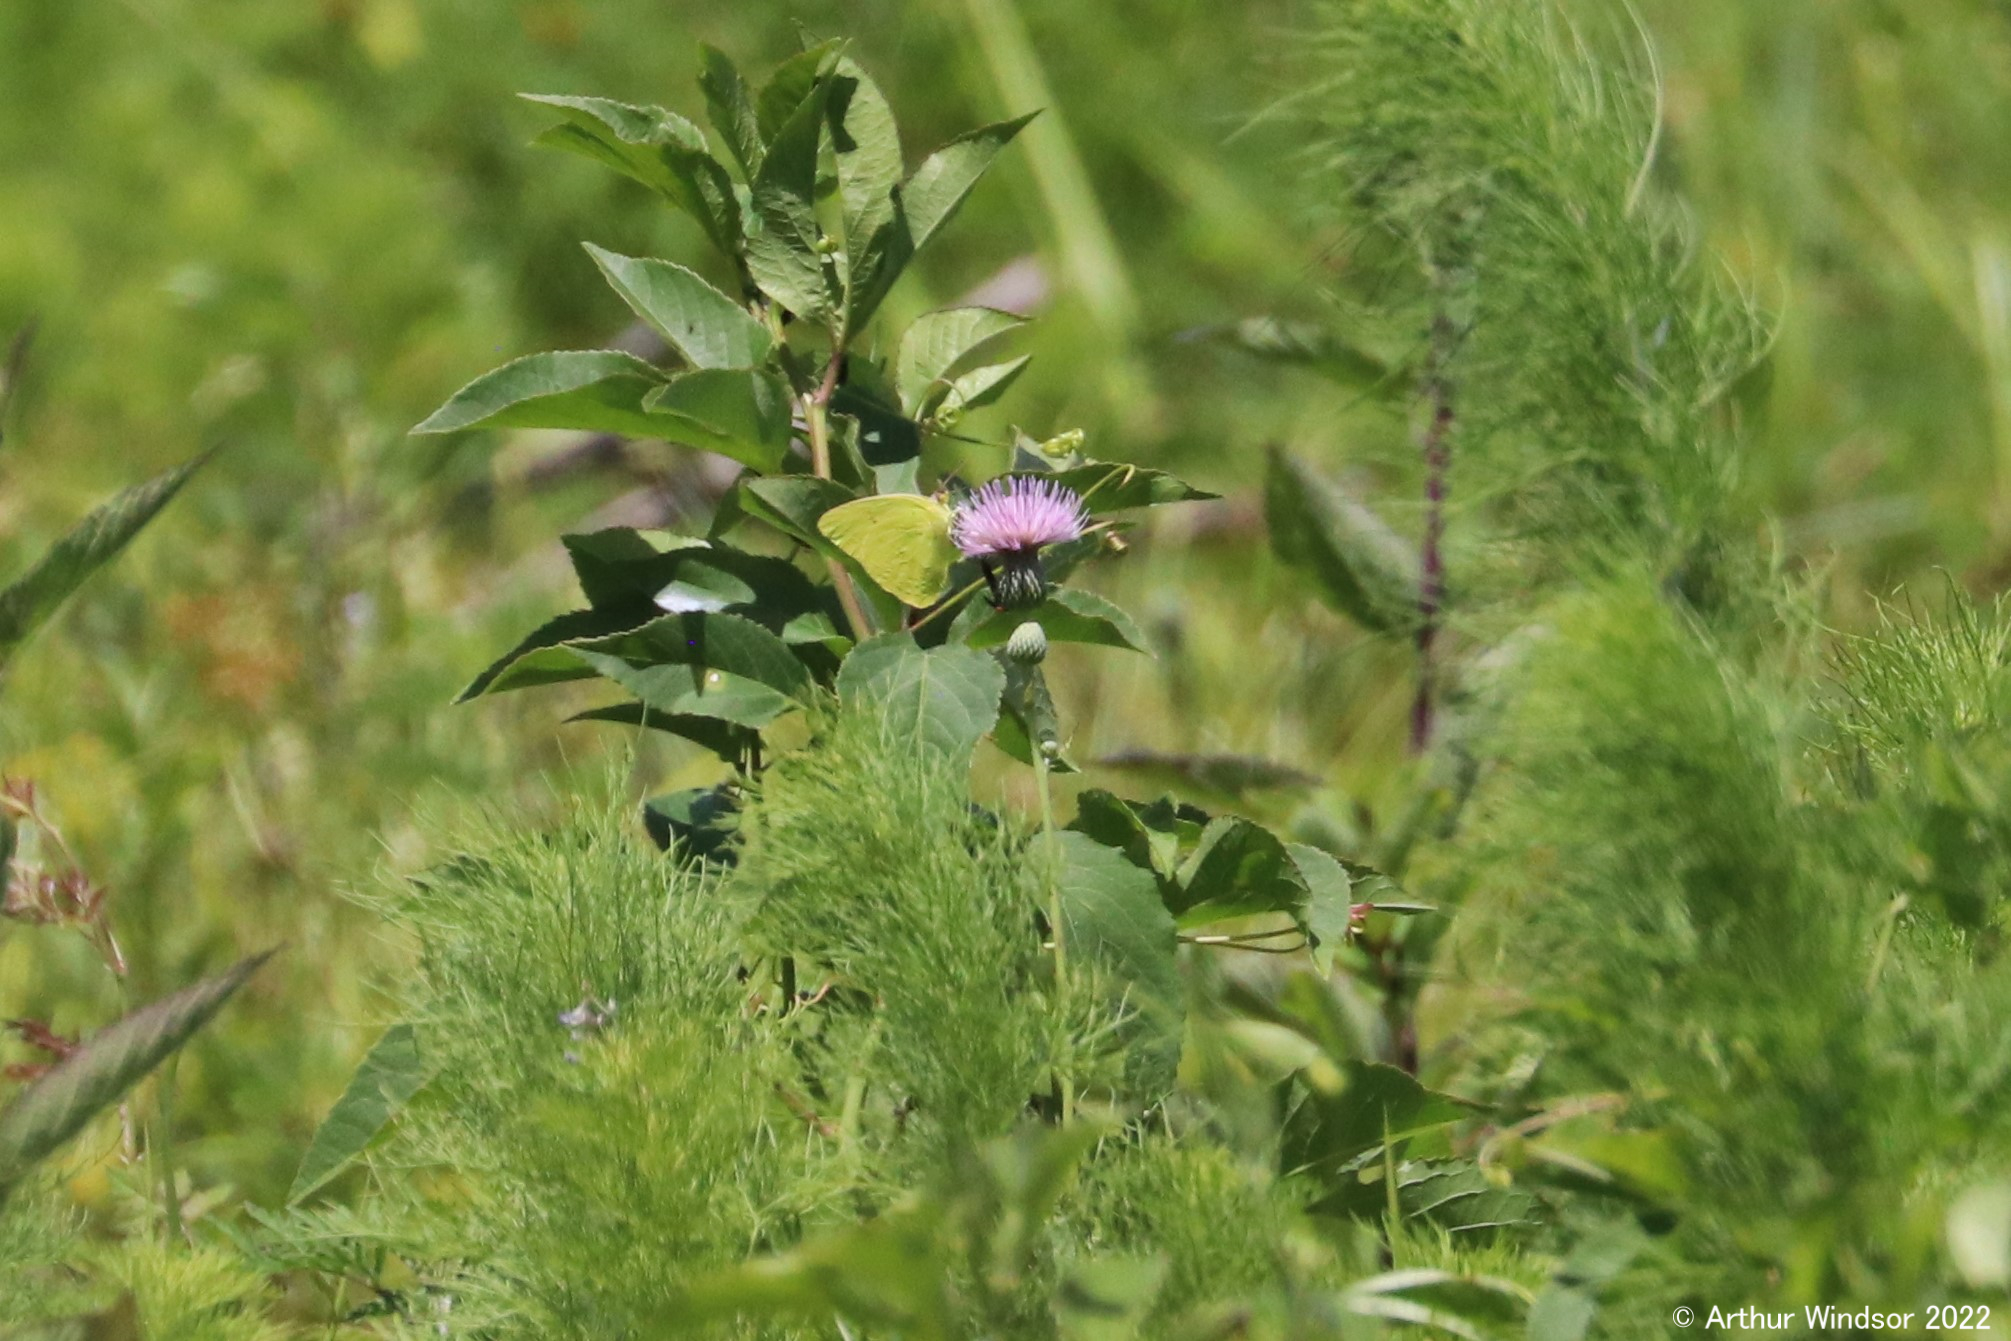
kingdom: Animalia
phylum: Arthropoda
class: Insecta
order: Lepidoptera
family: Pieridae
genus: Phoebis
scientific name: Phoebis sennae
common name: Cloudless sulphur
